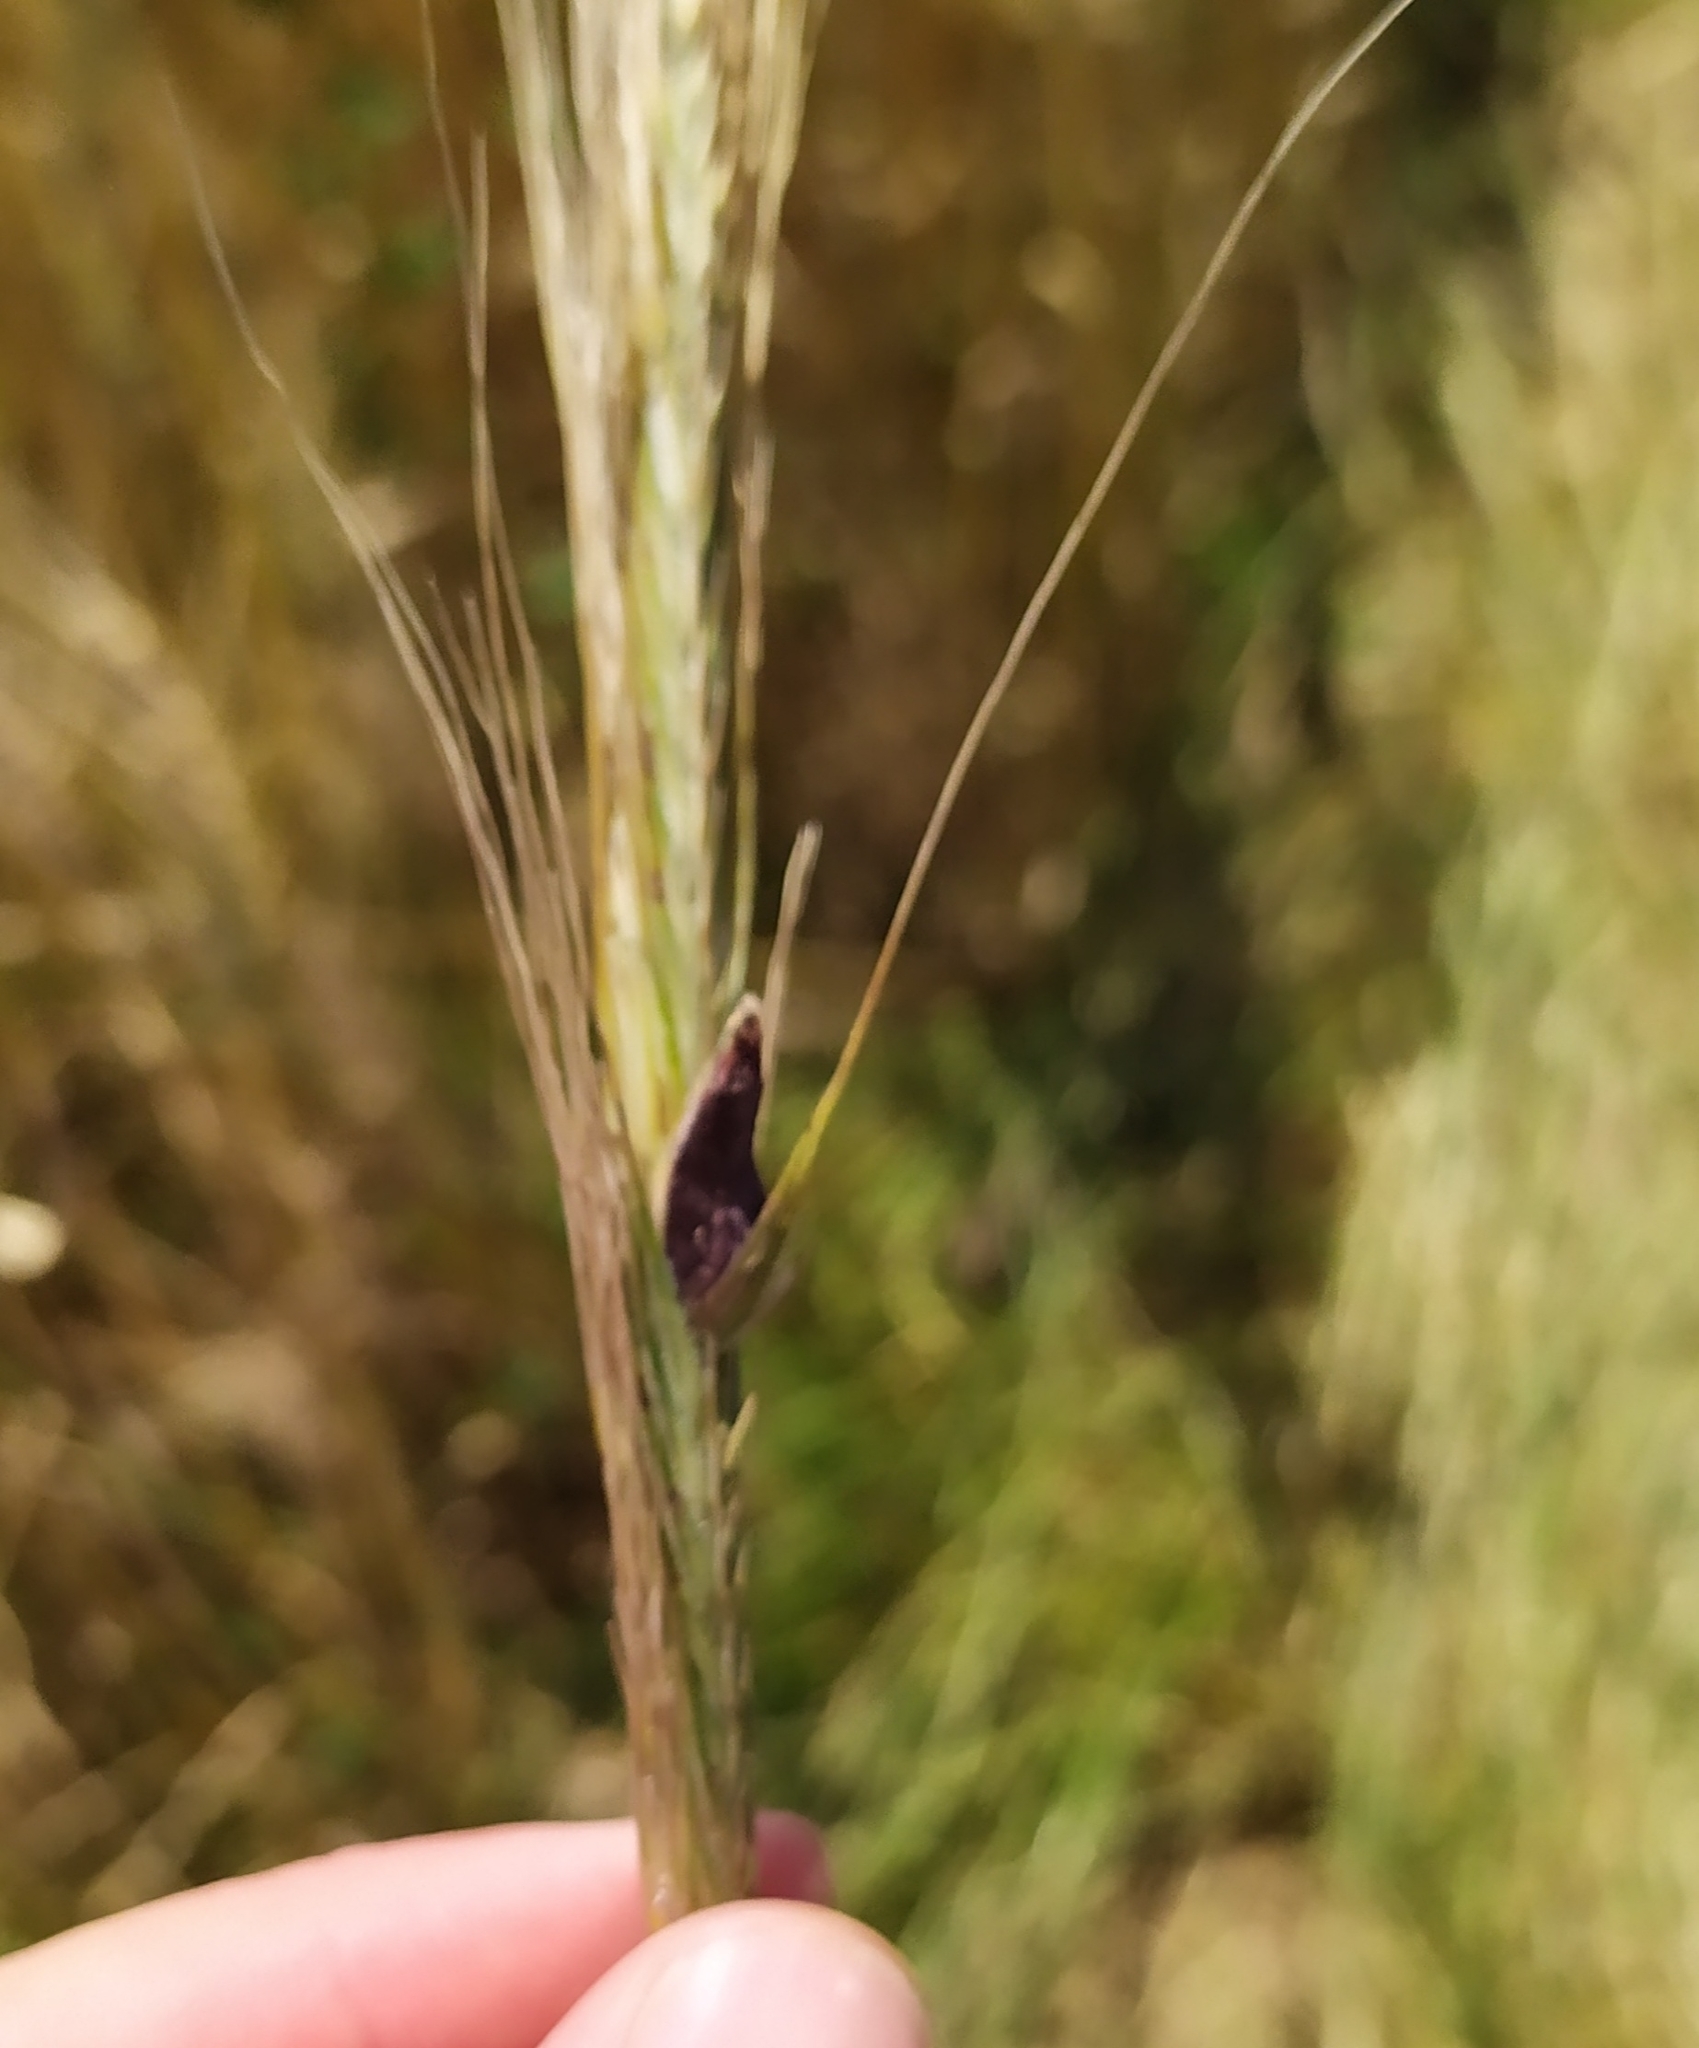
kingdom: Fungi
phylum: Ascomycota
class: Sordariomycetes
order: Hypocreales
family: Clavicipitaceae
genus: Claviceps
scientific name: Claviceps purpurea
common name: Rye ergot
